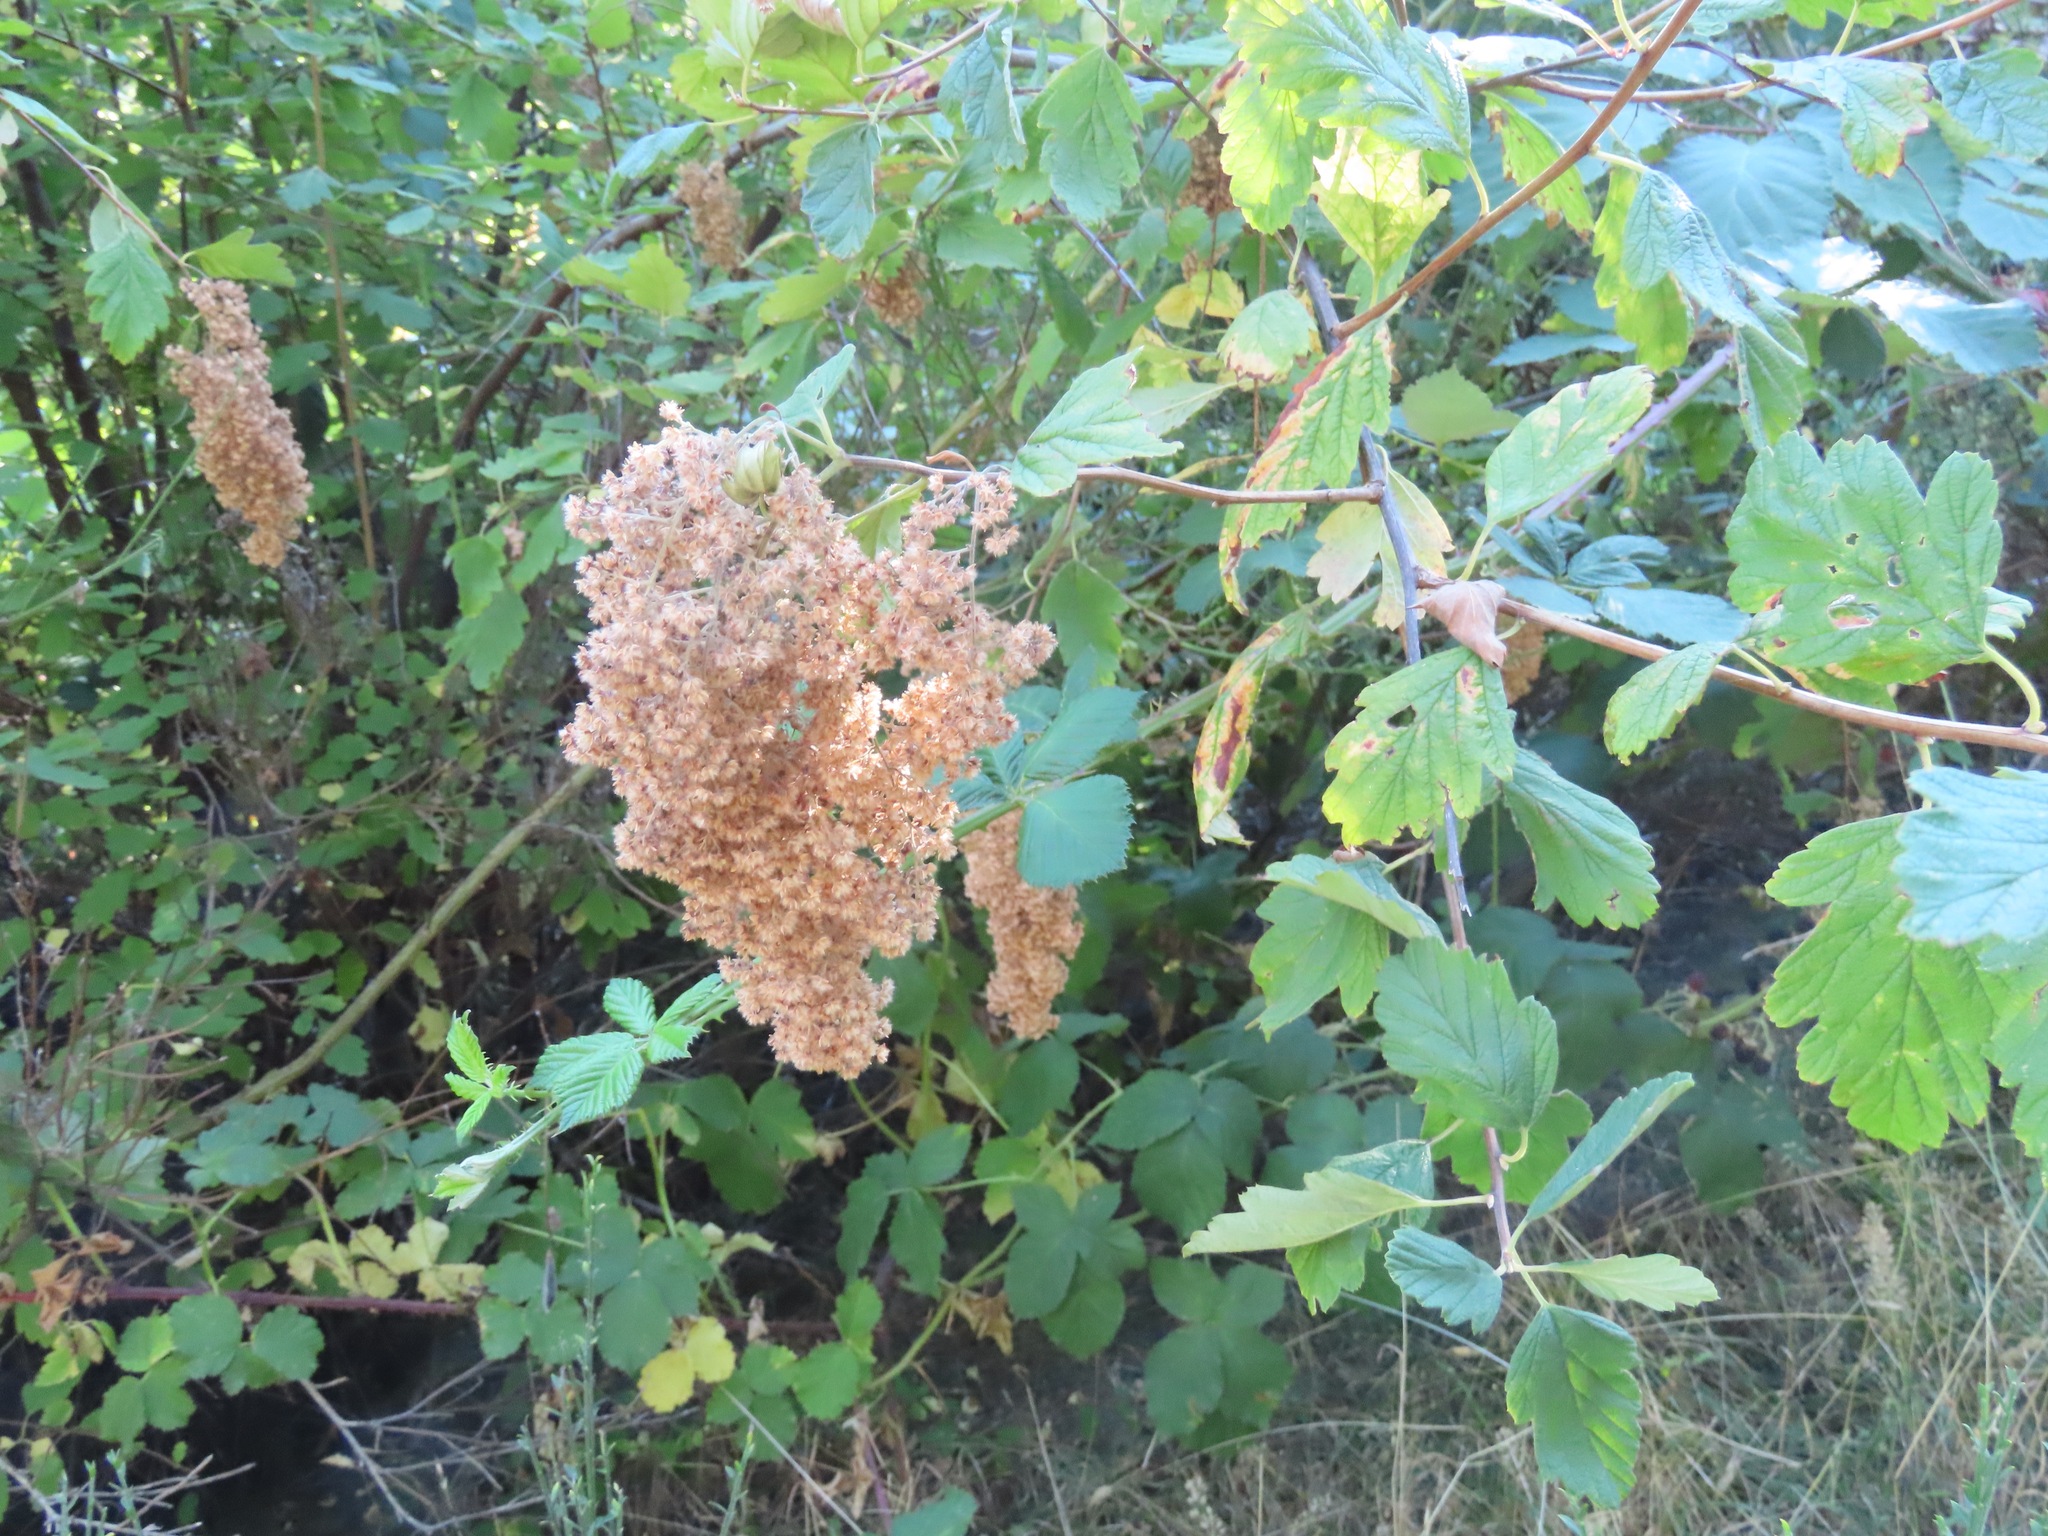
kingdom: Plantae
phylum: Tracheophyta
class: Magnoliopsida
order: Rosales
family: Rosaceae
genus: Holodiscus
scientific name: Holodiscus discolor
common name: Oceanspray
